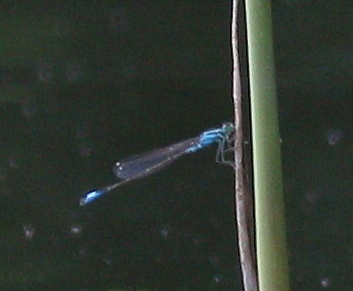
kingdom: Animalia
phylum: Arthropoda
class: Insecta
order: Odonata
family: Coenagrionidae
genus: Ischnura
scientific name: Ischnura elegans
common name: Blue-tailed damselfly
